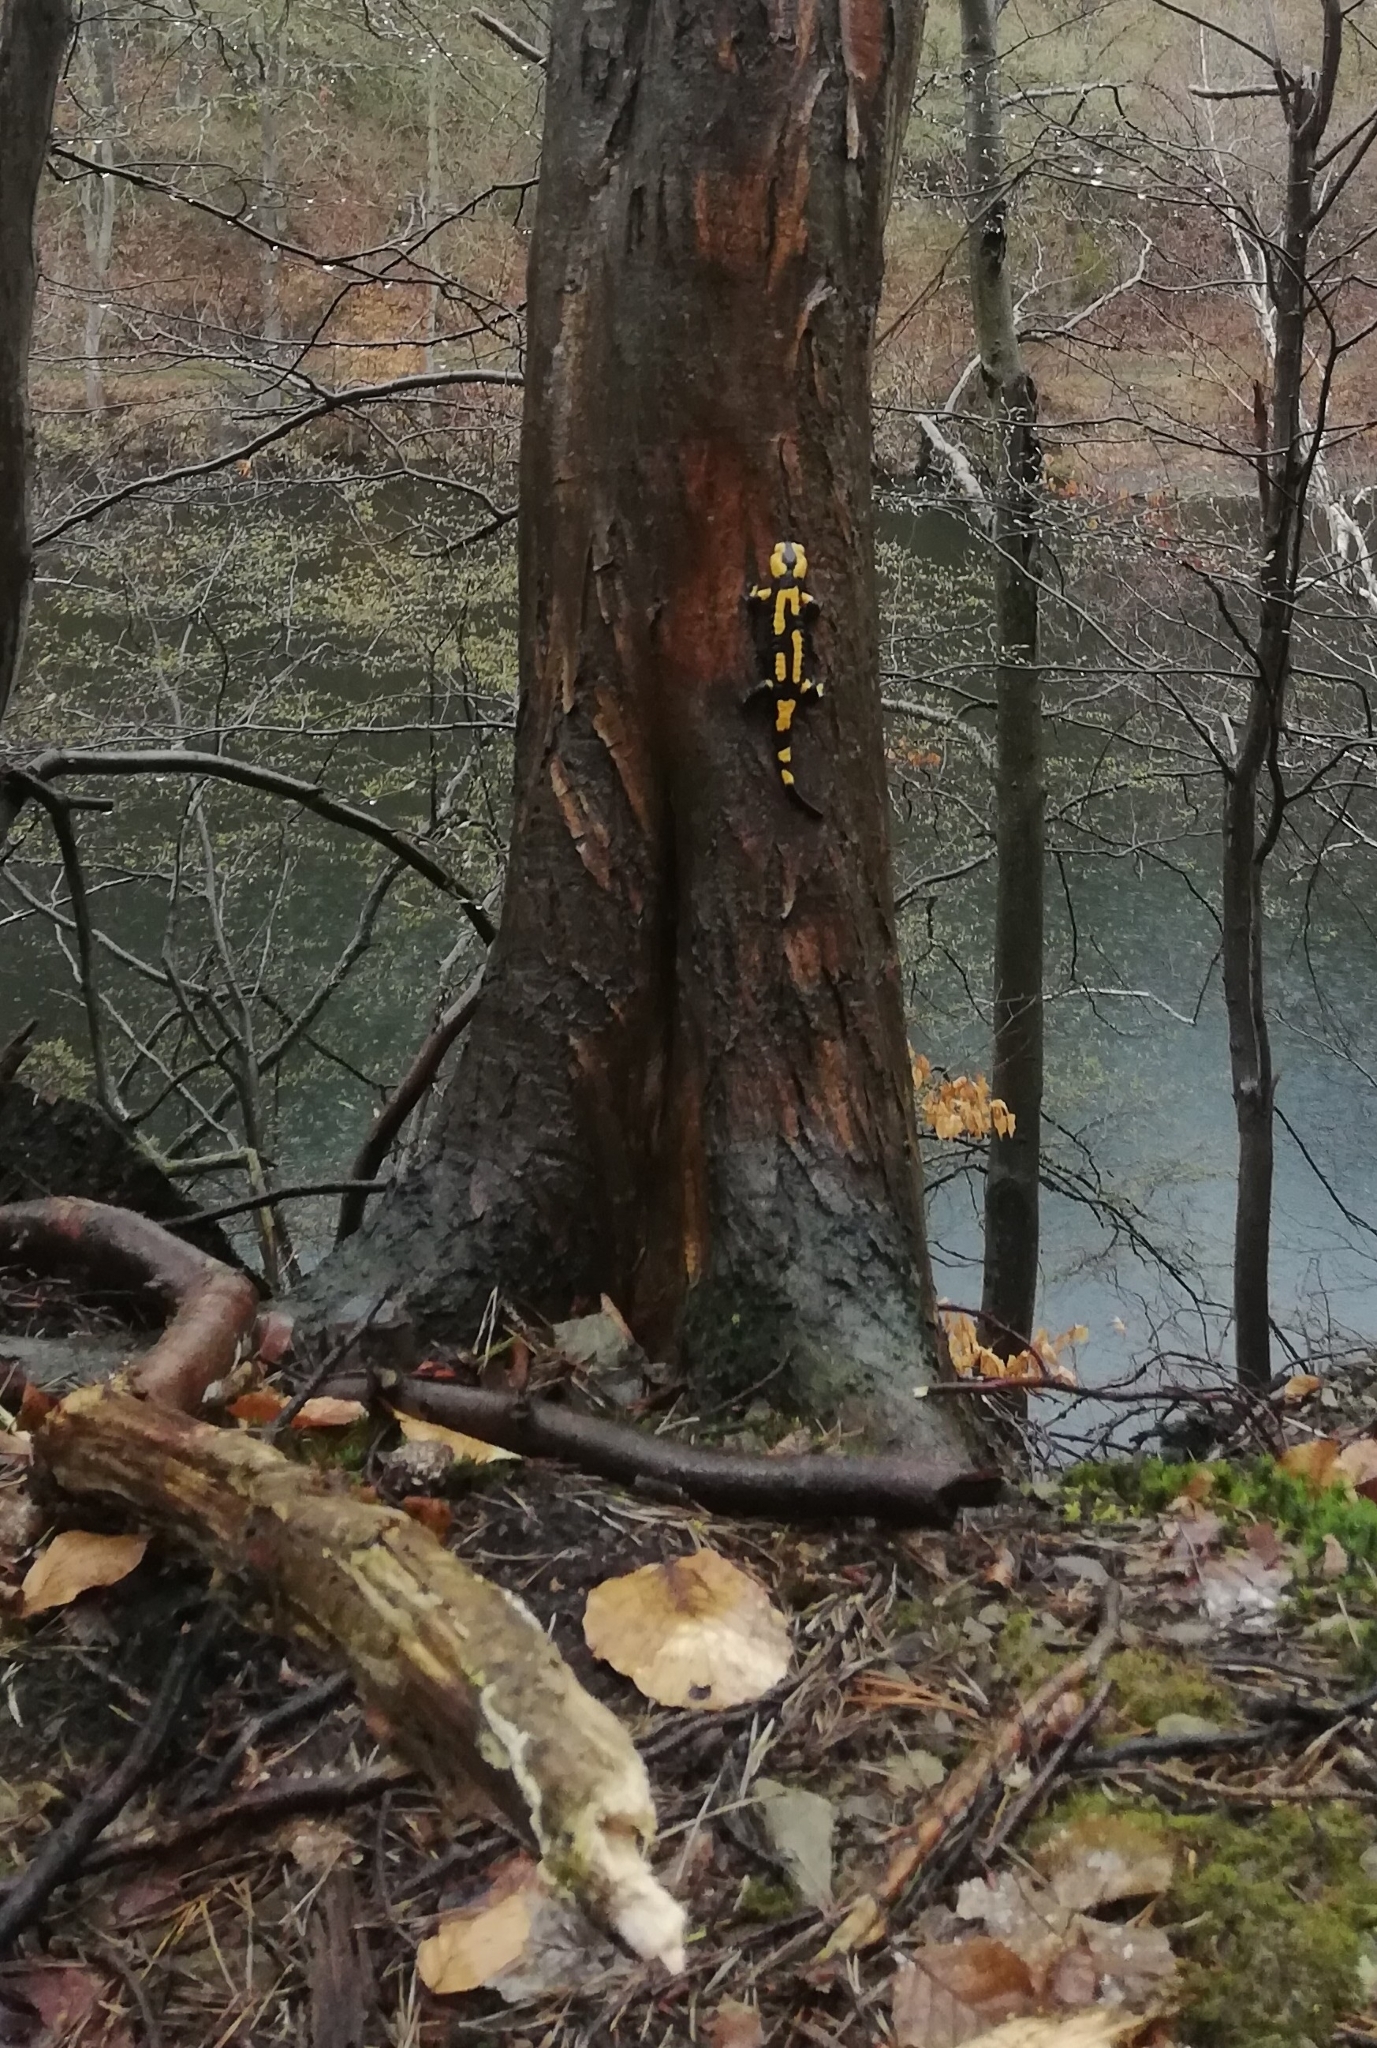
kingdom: Animalia
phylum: Chordata
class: Amphibia
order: Caudata
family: Salamandridae
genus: Salamandra
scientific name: Salamandra salamandra
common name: Fire salamander
